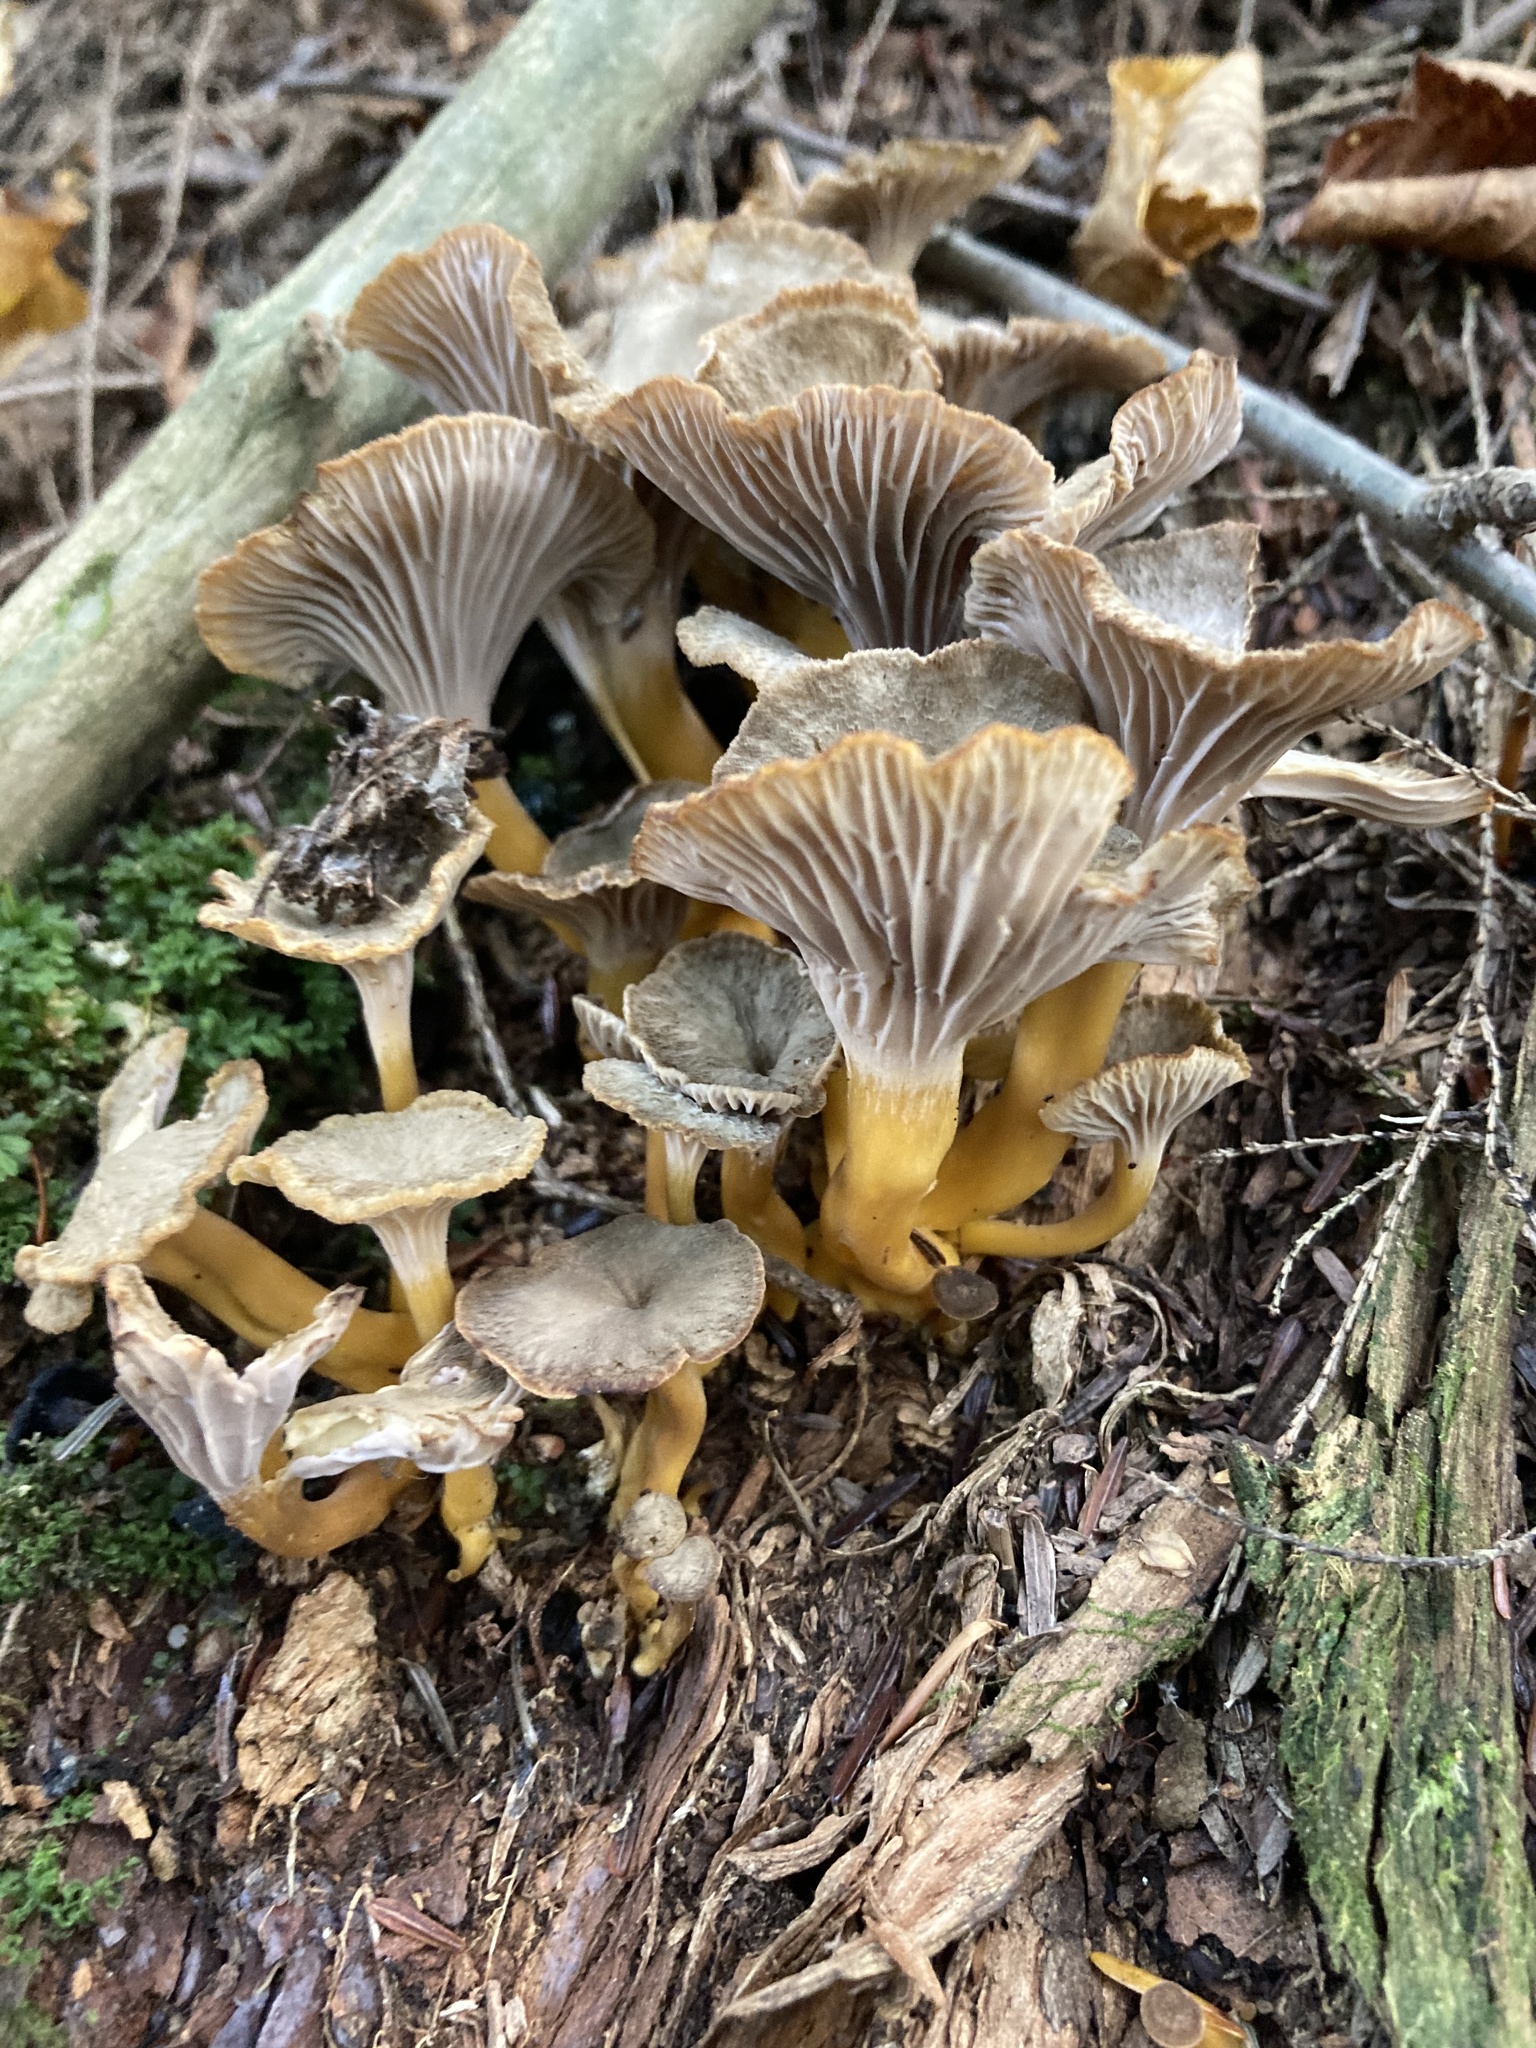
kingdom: Fungi
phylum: Basidiomycota
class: Agaricomycetes
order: Cantharellales
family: Hydnaceae
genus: Craterellus
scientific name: Craterellus tubaeformis
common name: Yellowfoot
